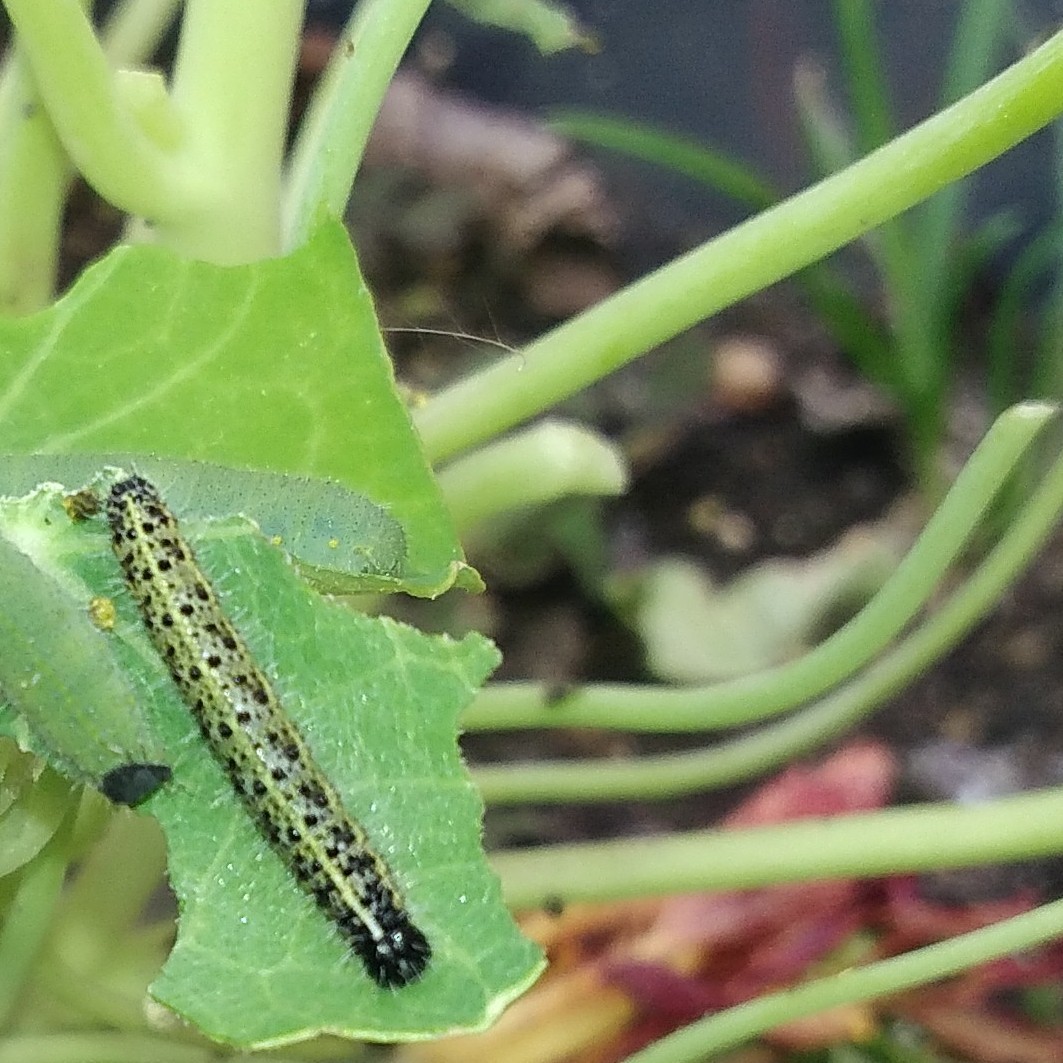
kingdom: Animalia
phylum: Arthropoda
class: Insecta
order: Lepidoptera
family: Pieridae
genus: Pieris
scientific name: Pieris brassicae
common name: Large white
